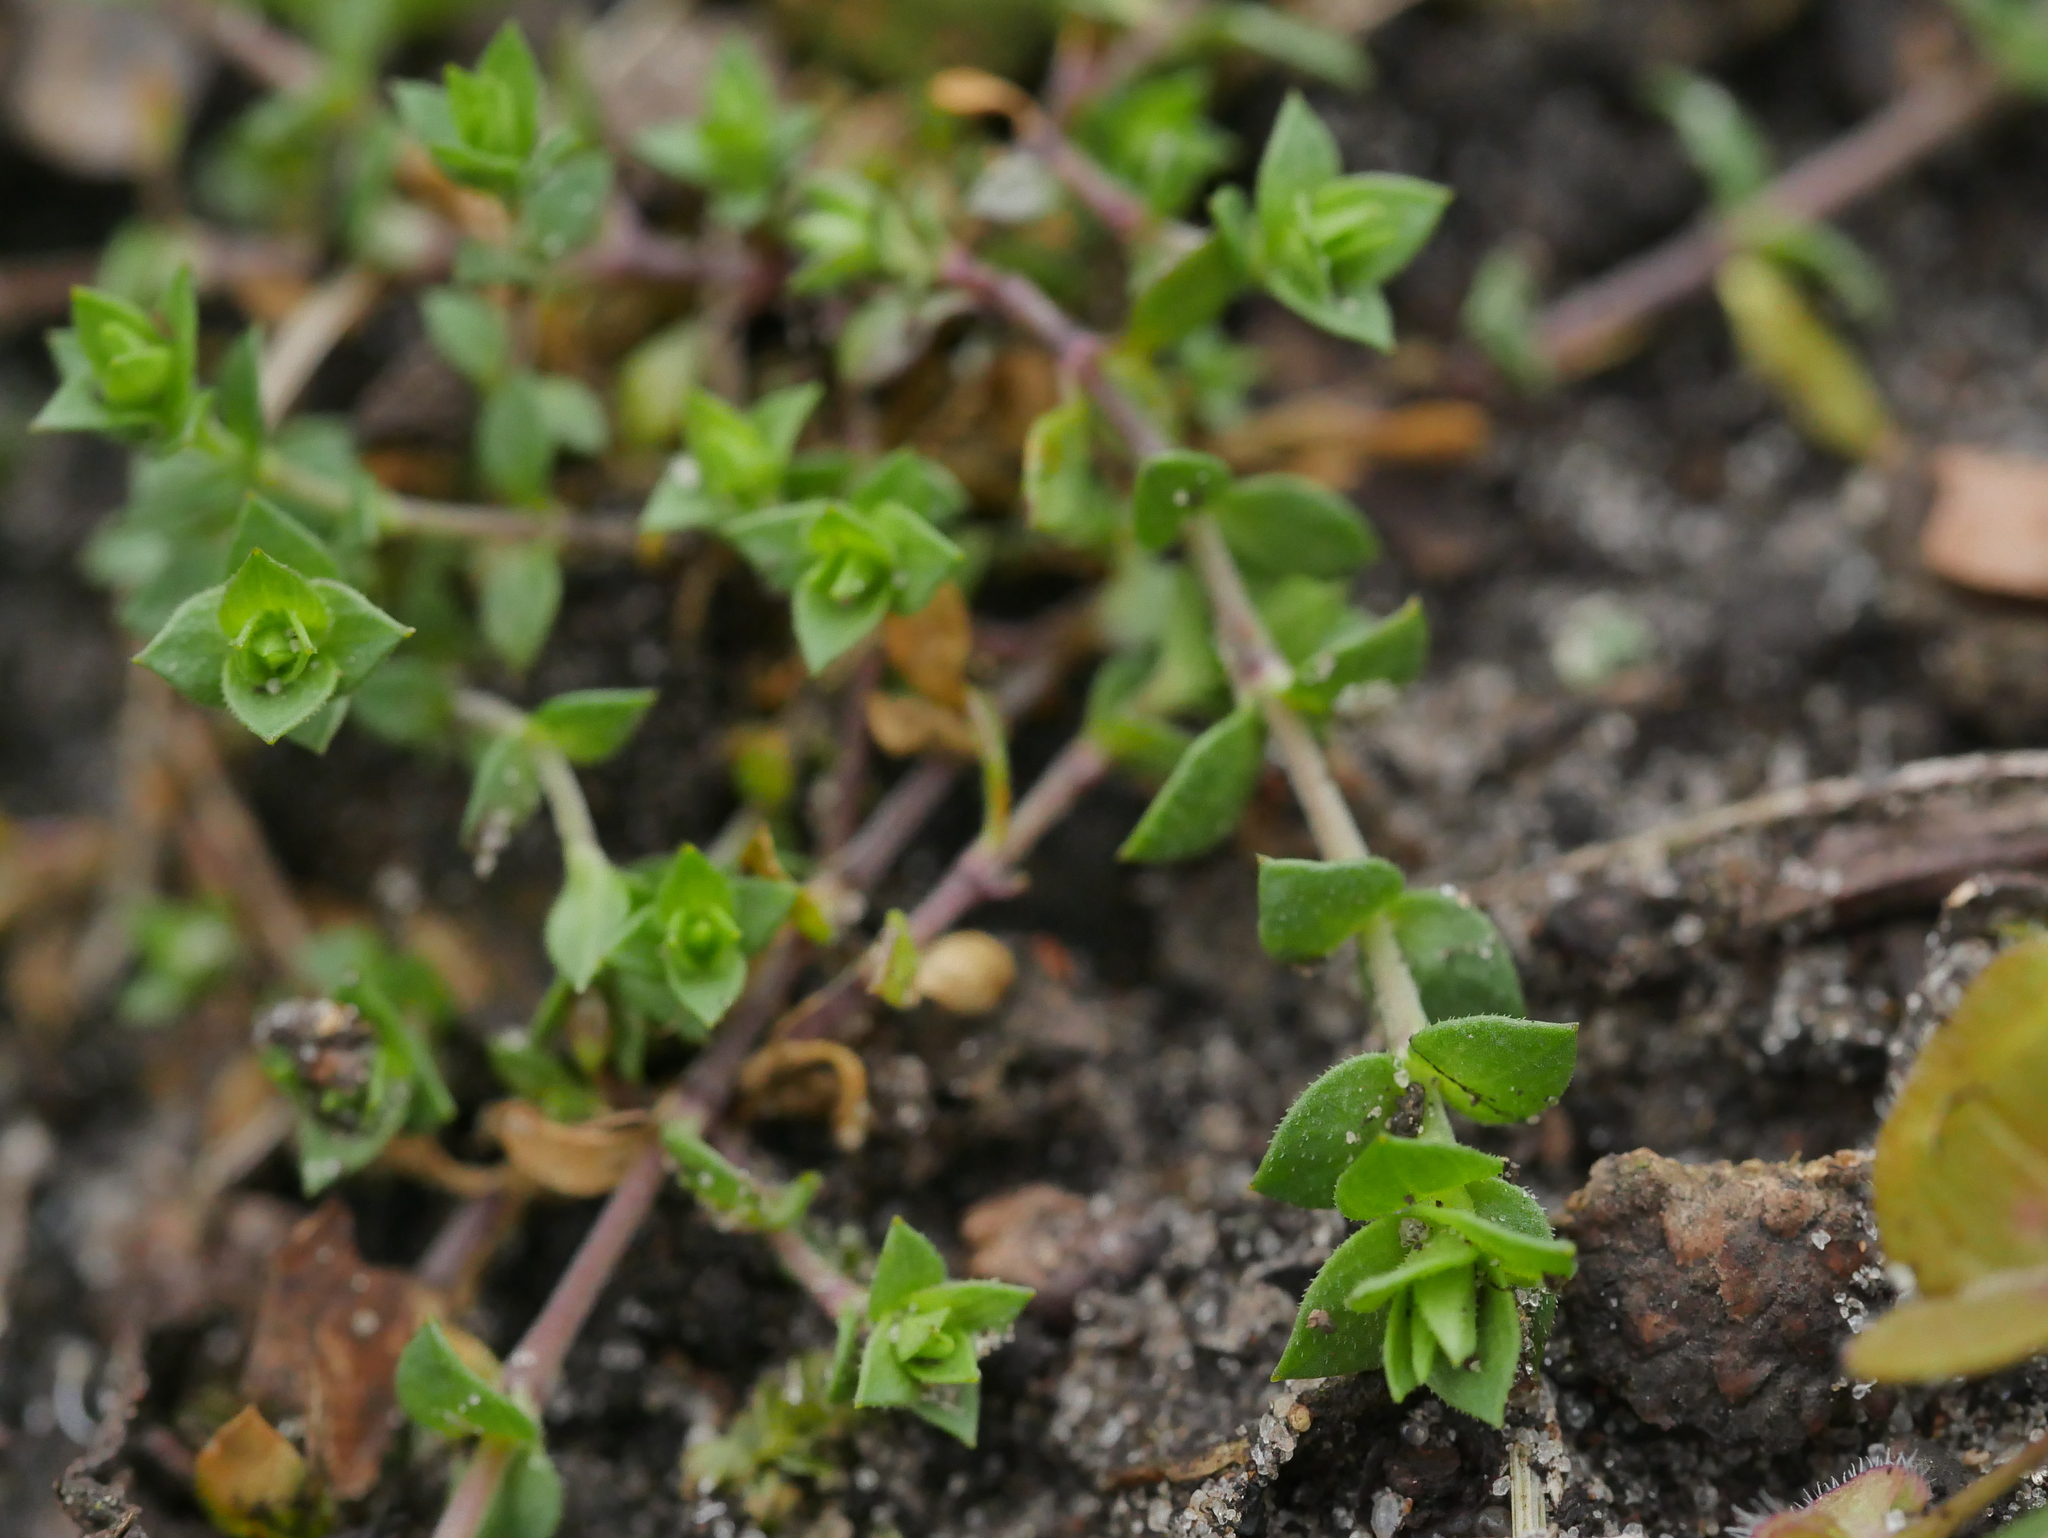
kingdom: Plantae
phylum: Tracheophyta
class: Magnoliopsida
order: Caryophyllales
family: Caryophyllaceae
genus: Arenaria
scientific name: Arenaria serpyllifolia
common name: Thyme-leaved sandwort
